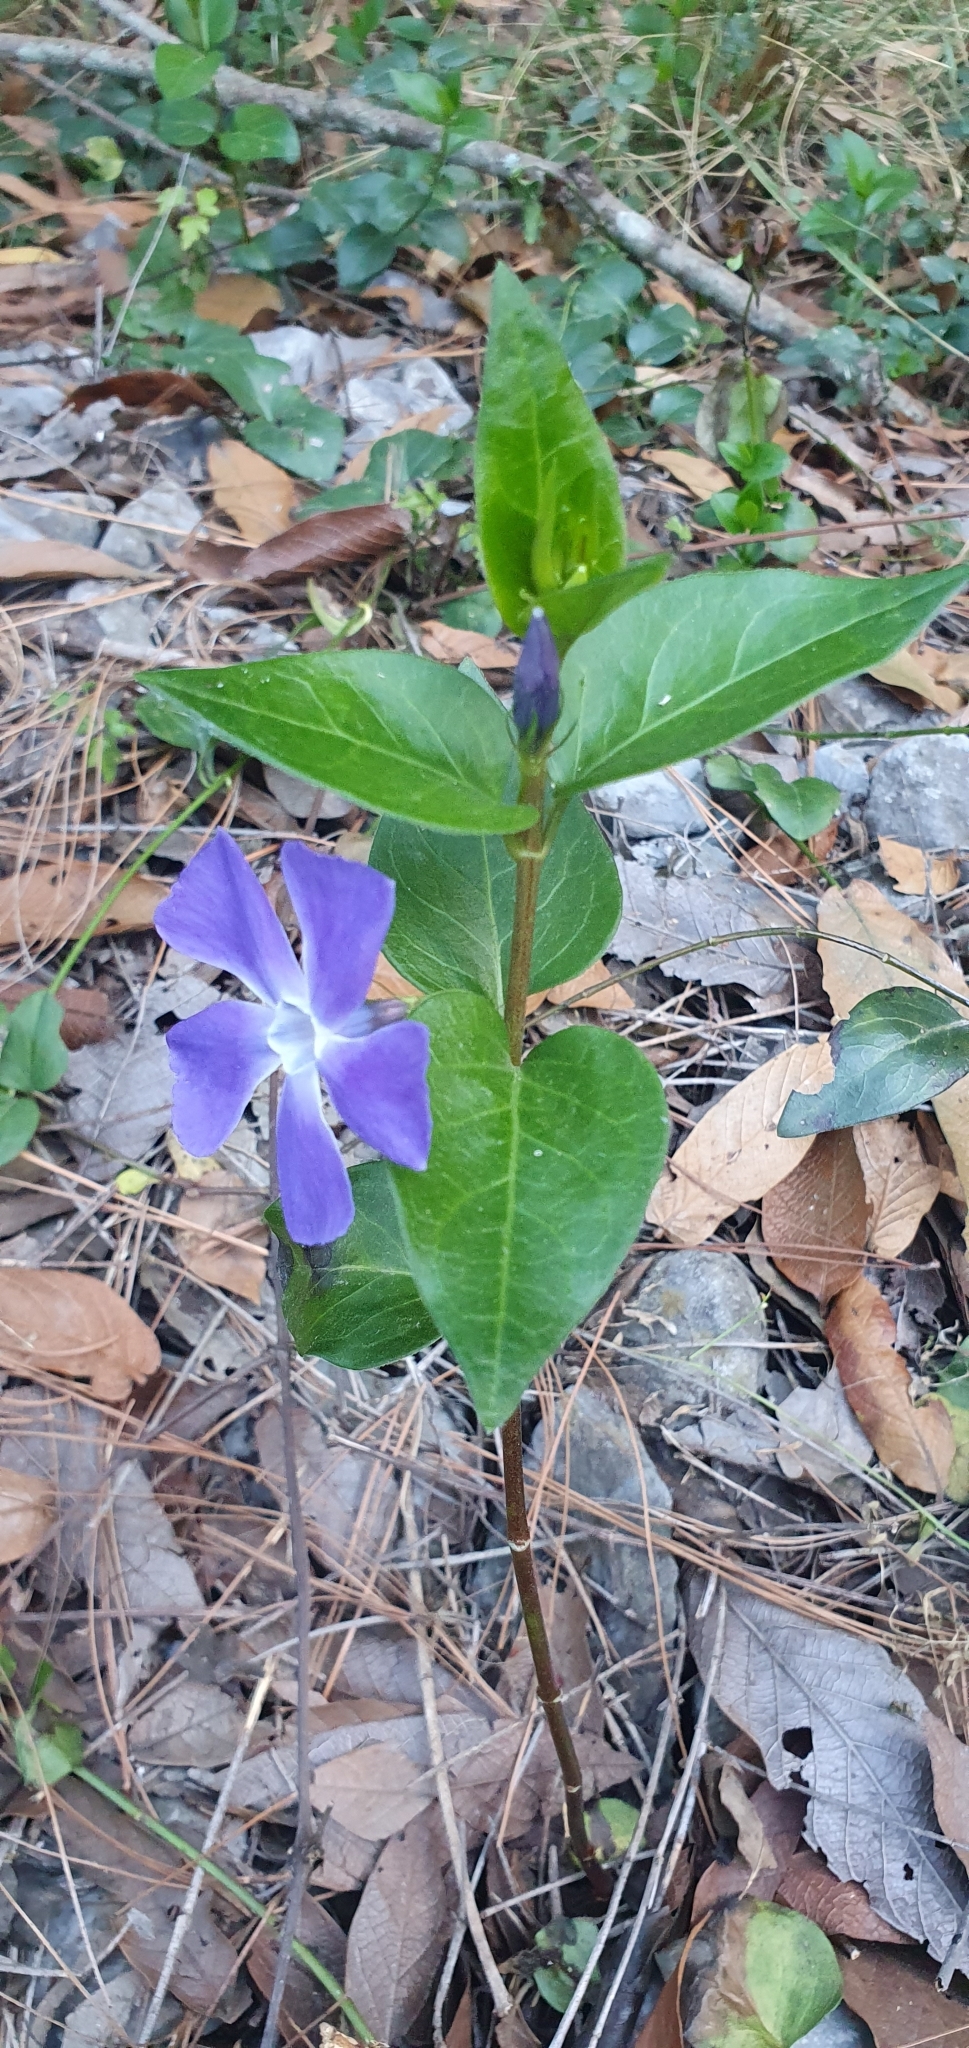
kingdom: Plantae
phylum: Tracheophyta
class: Magnoliopsida
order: Gentianales
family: Apocynaceae
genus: Vinca
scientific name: Vinca major
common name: Greater periwinkle
